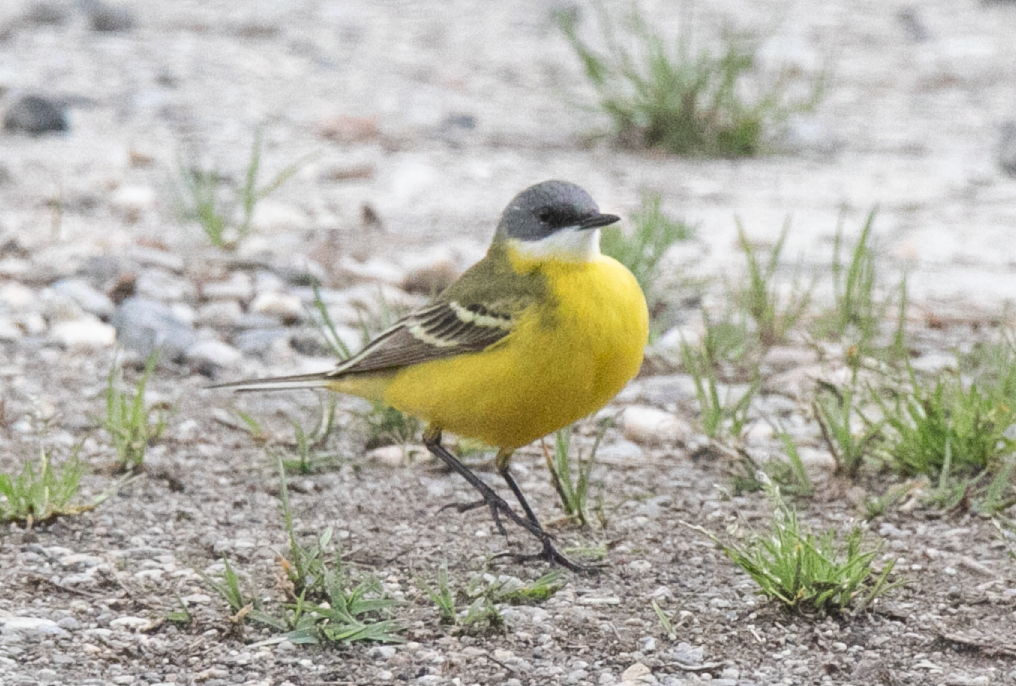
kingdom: Animalia
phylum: Chordata
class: Aves
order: Passeriformes
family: Motacillidae
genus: Motacilla
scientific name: Motacilla flava
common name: Western yellow wagtail
